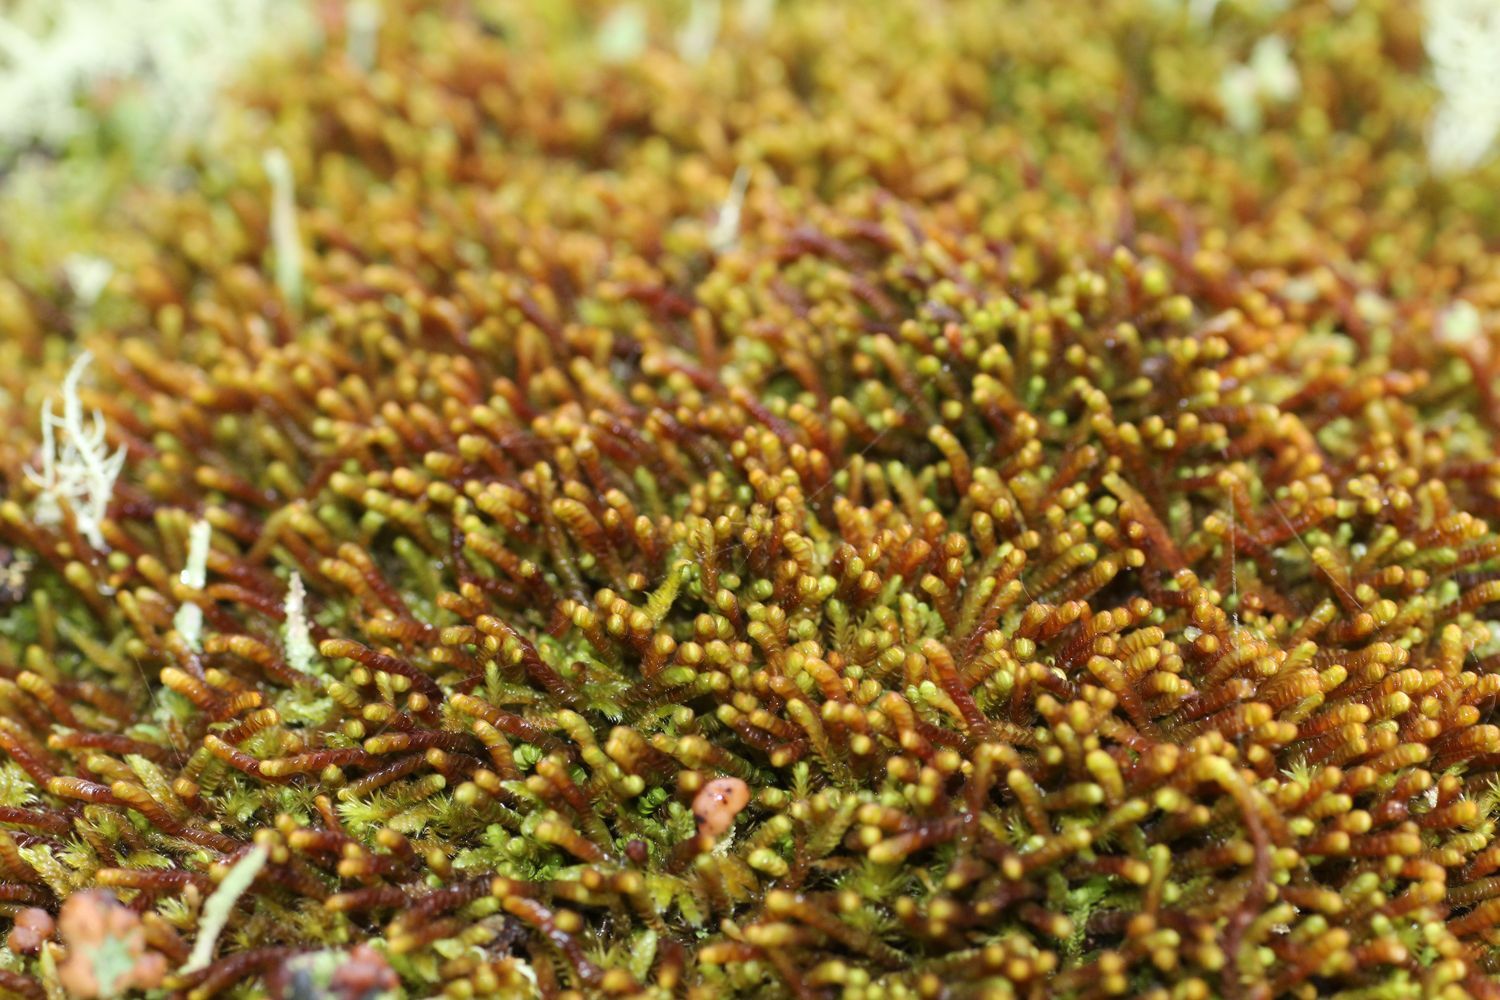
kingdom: Plantae
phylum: Marchantiophyta
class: Jungermanniopsida
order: Jungermanniales
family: Adelanthaceae
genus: Syzygiella
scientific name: Syzygiella colorata
